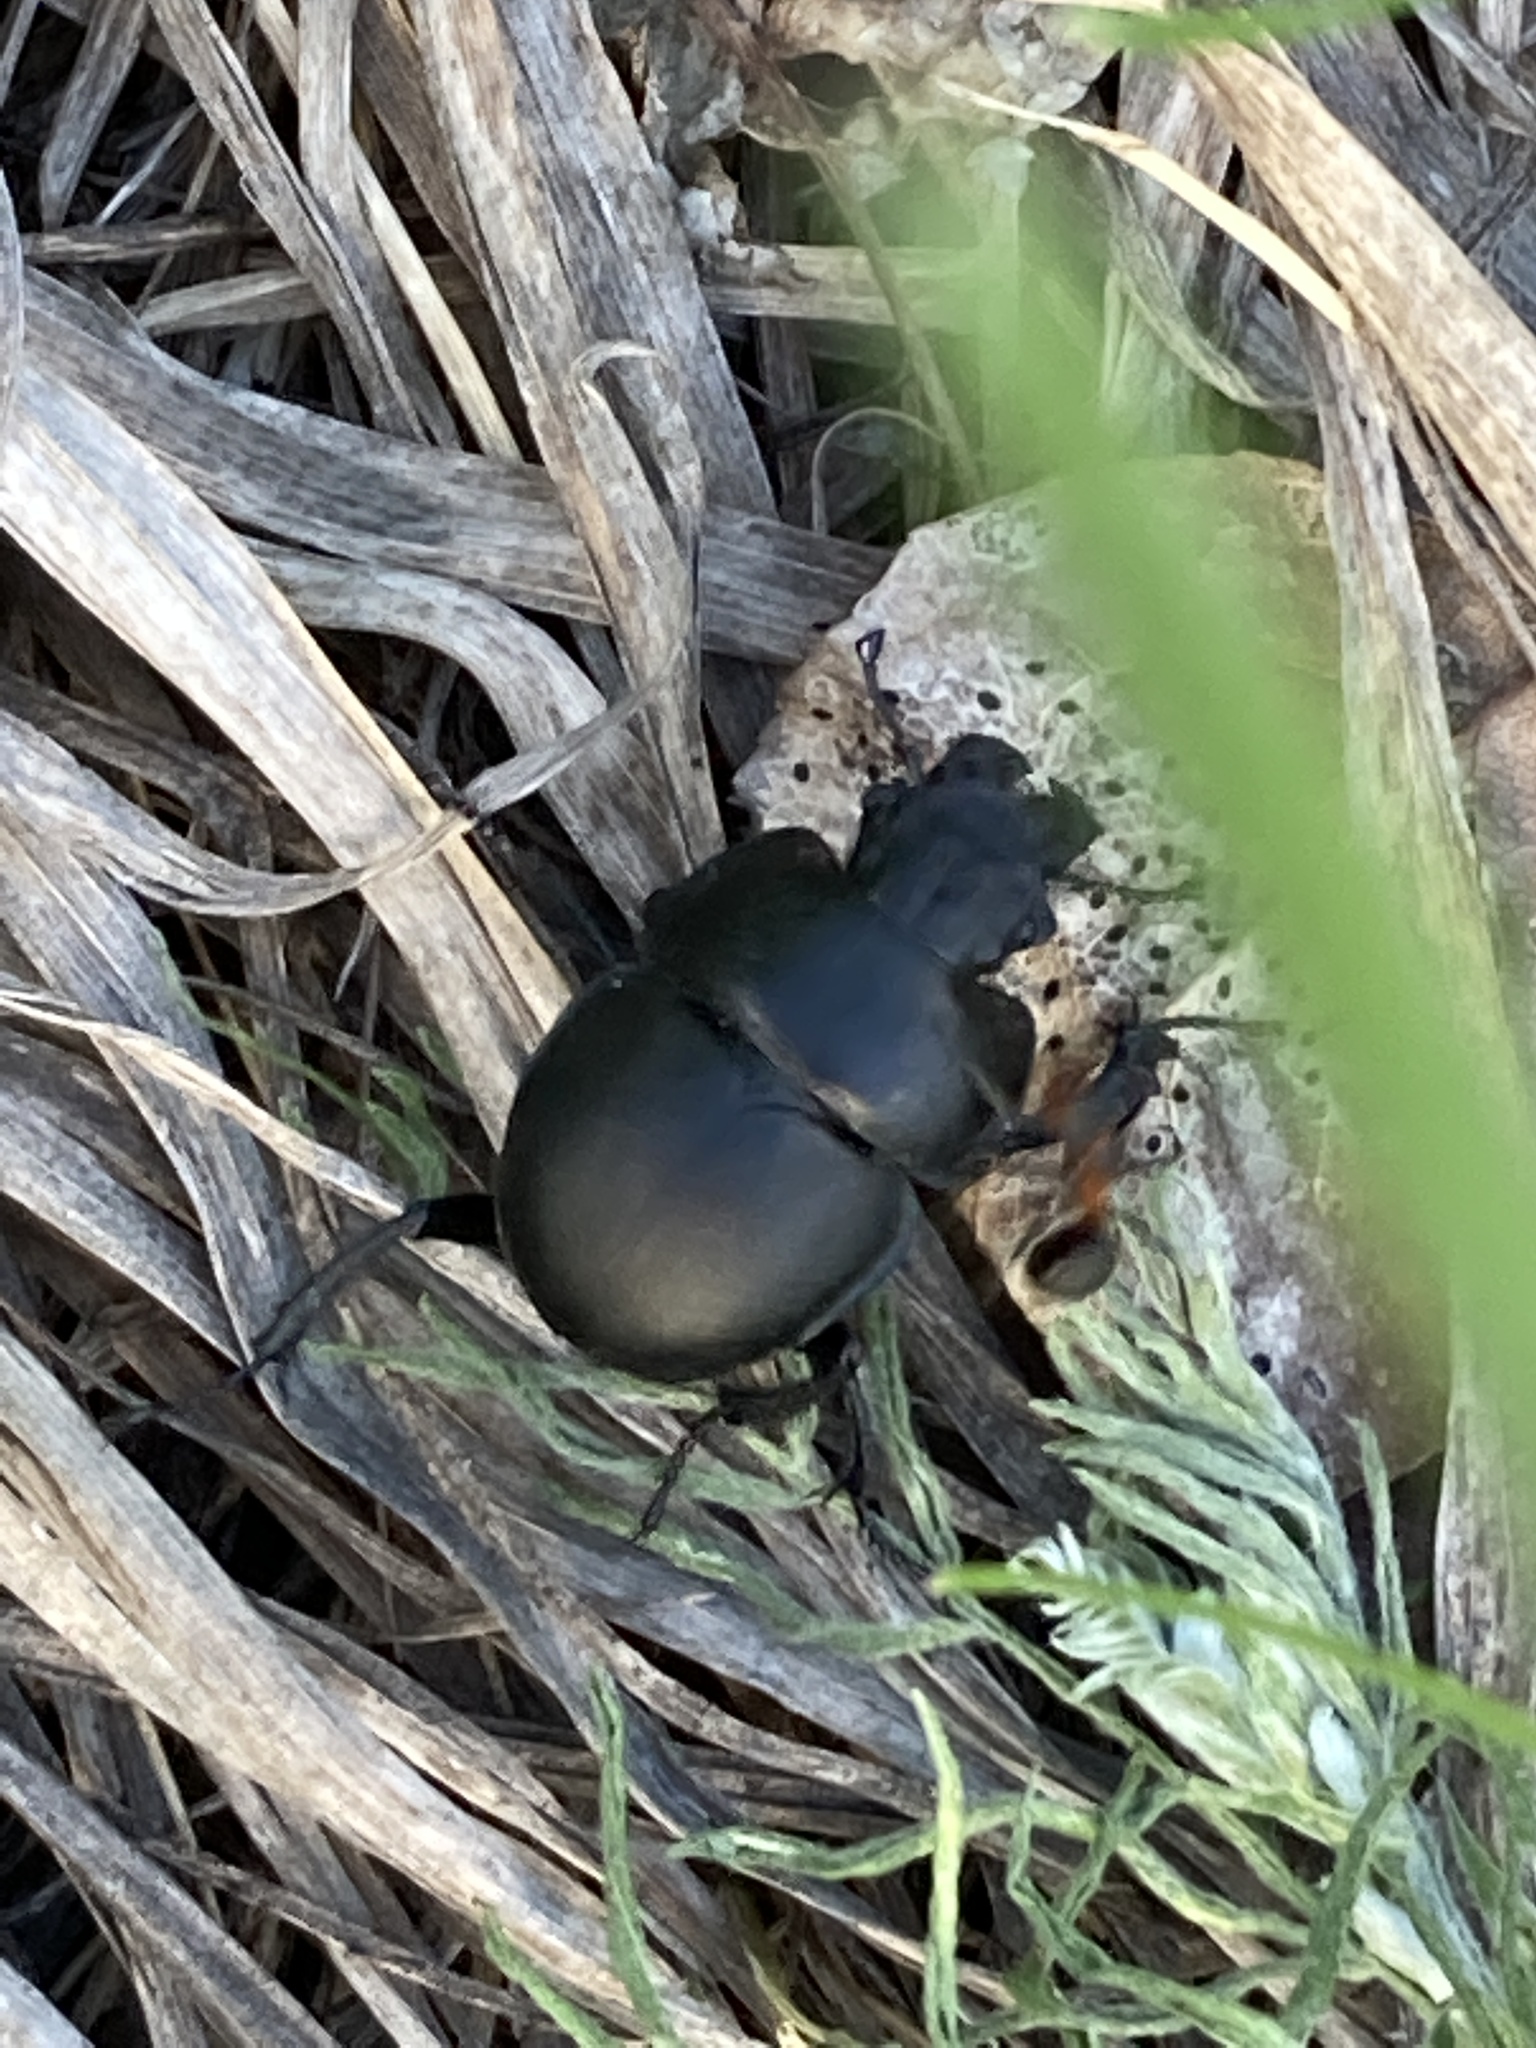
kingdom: Animalia
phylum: Arthropoda
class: Insecta
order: Coleoptera
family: Geotrupidae
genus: Lethrus
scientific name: Lethrus apterus
